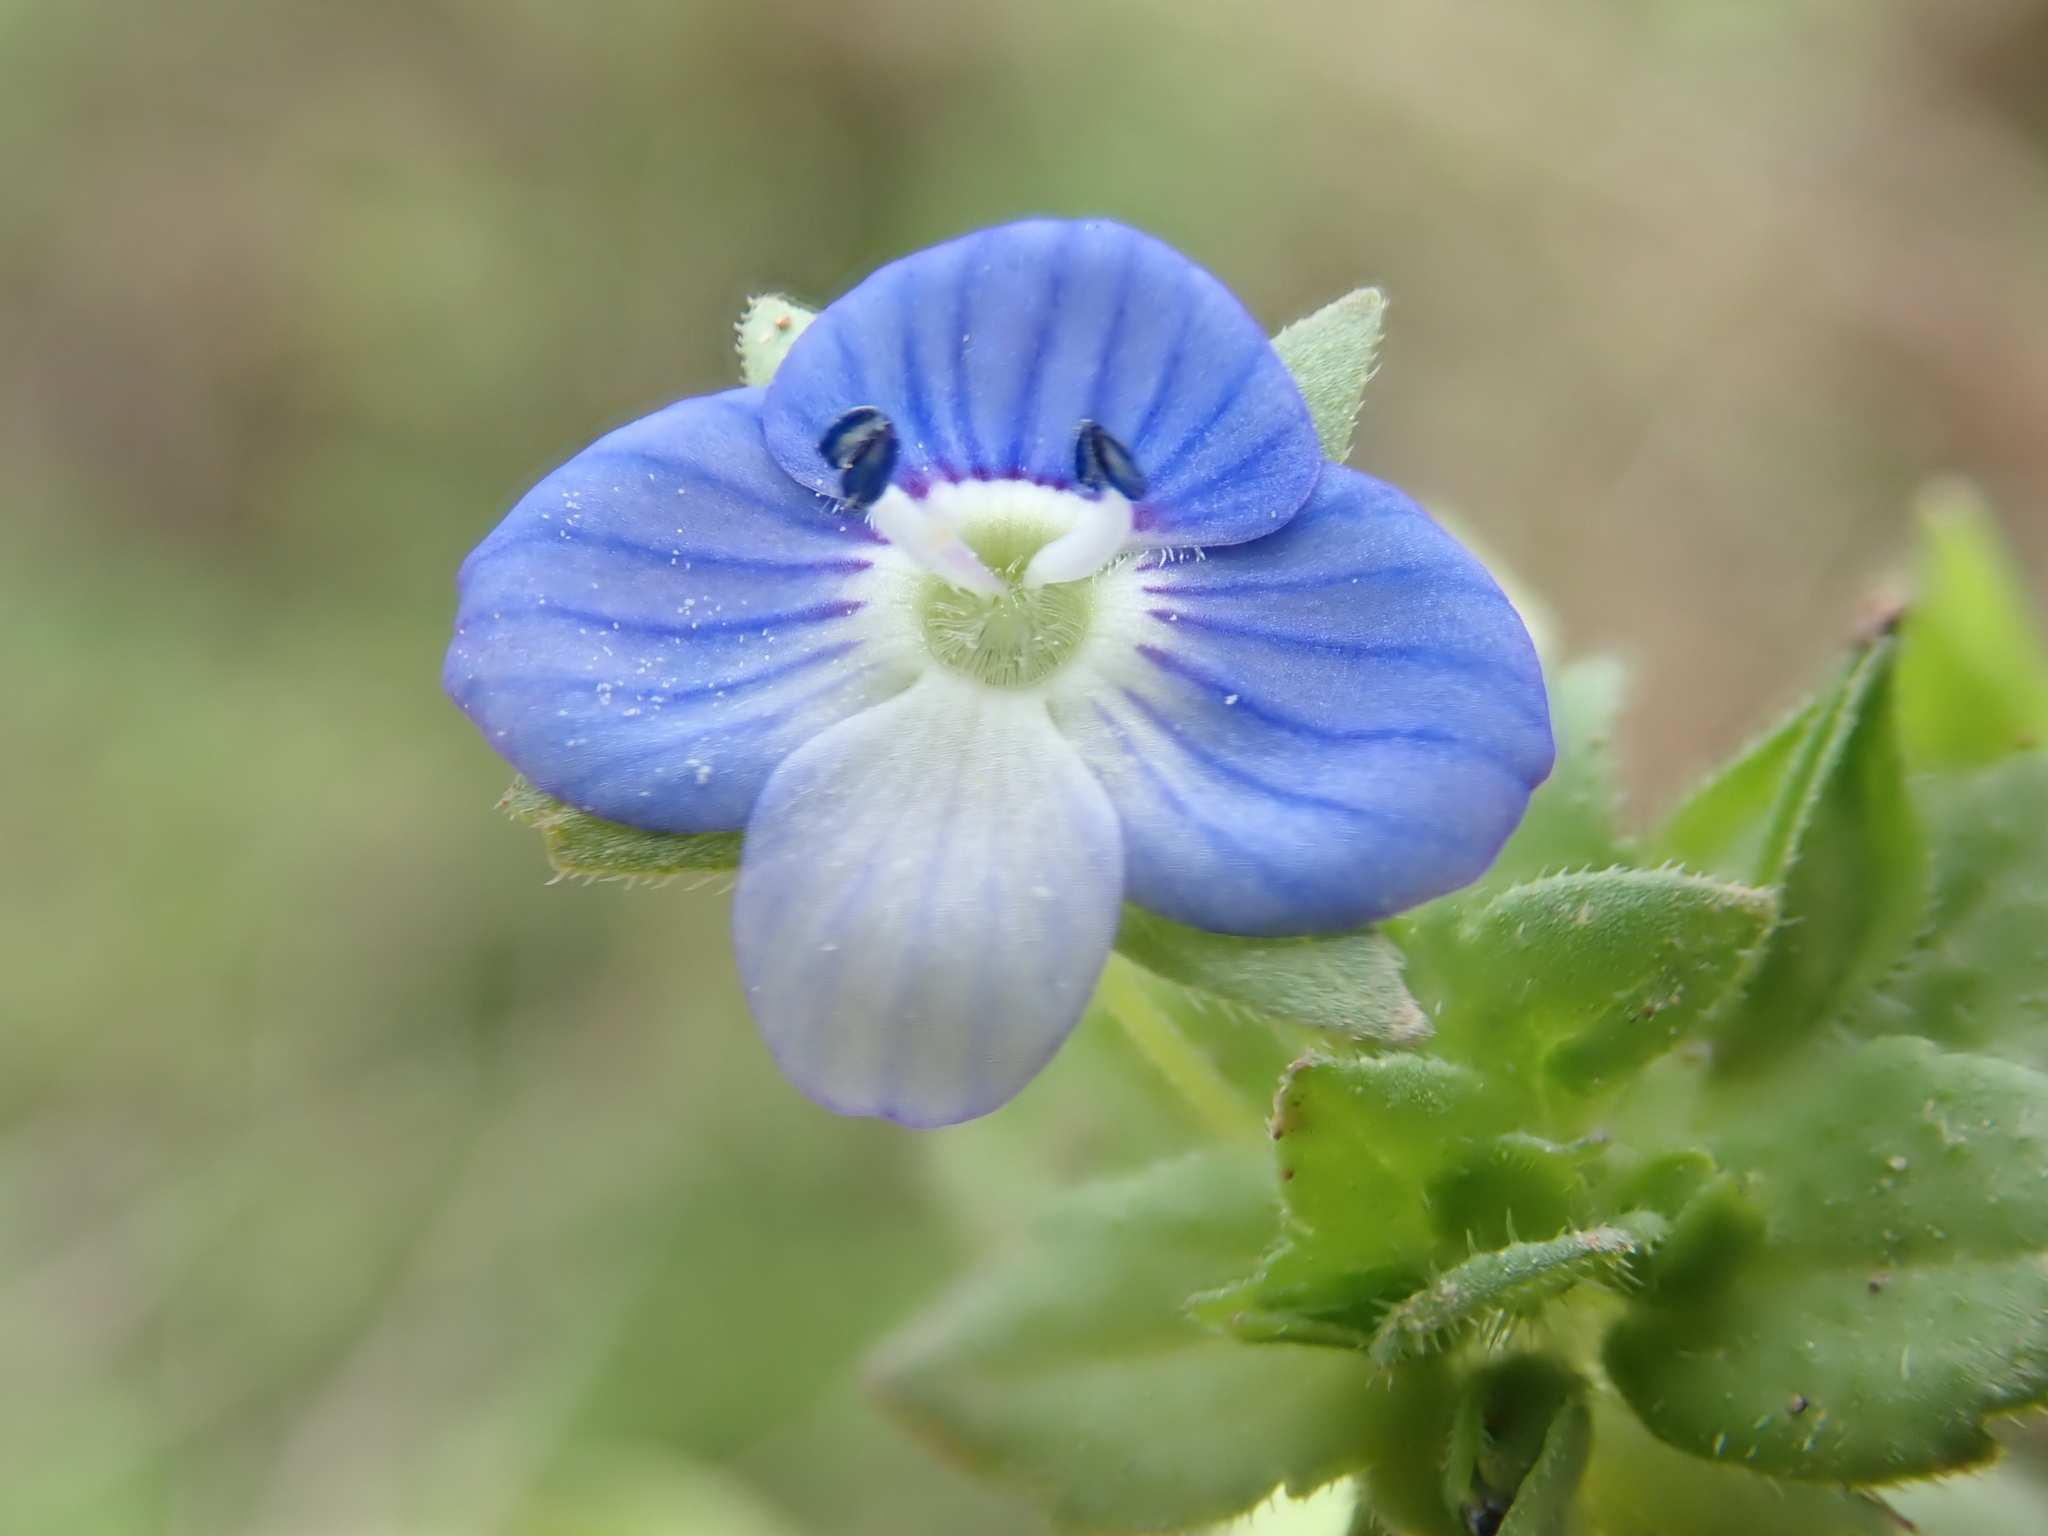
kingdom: Plantae
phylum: Tracheophyta
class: Magnoliopsida
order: Lamiales
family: Plantaginaceae
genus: Veronica
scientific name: Veronica persica
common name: Common field-speedwell
